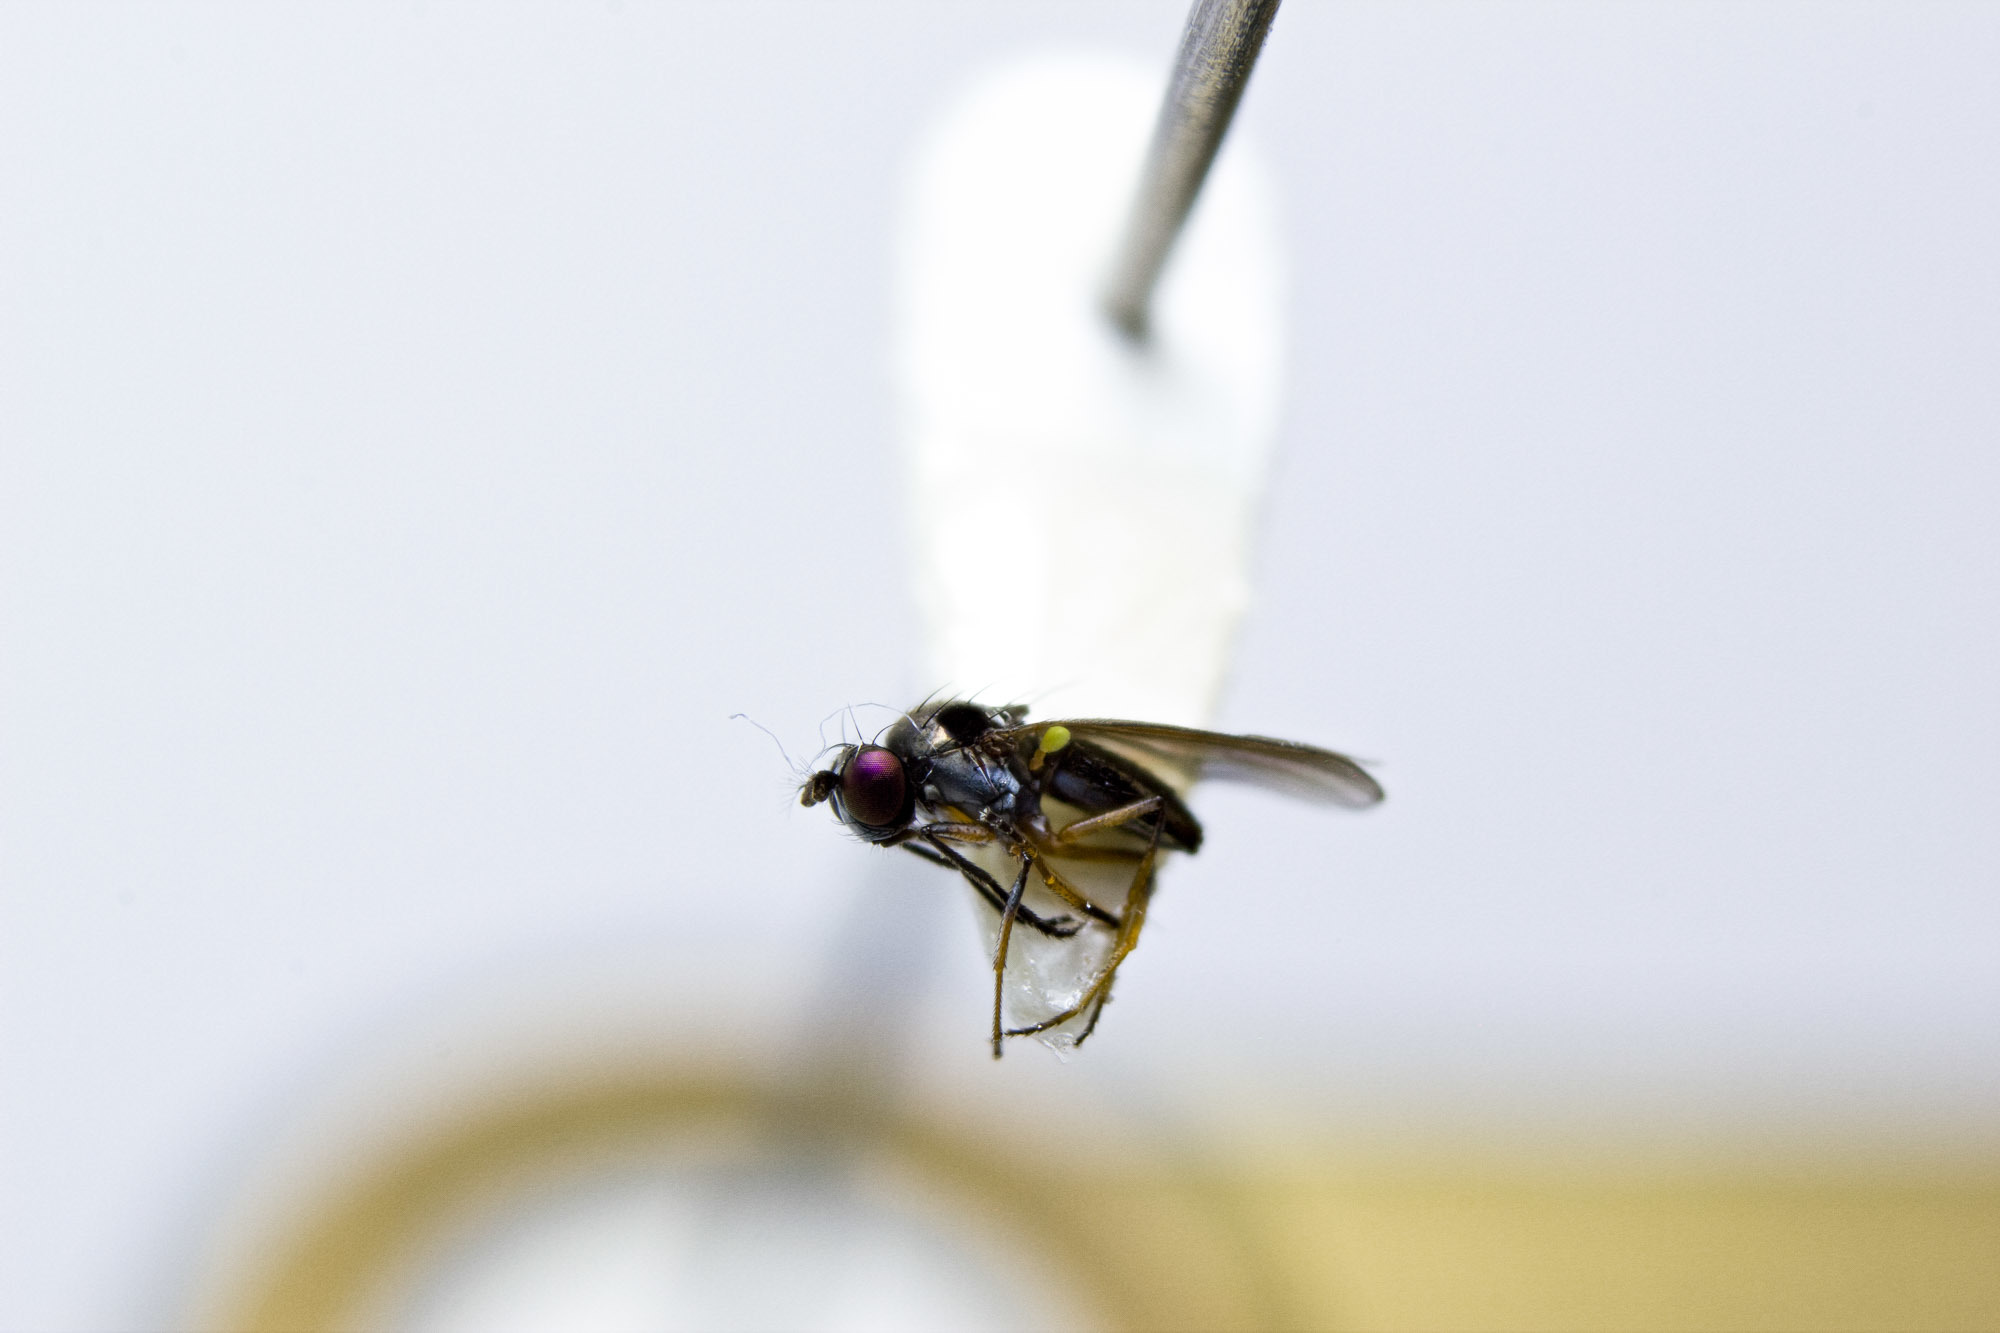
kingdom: Animalia
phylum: Arthropoda
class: Insecta
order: Diptera
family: Ephydridae
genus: Hydrellia
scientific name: Hydrellia tritici
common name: Shore fly
